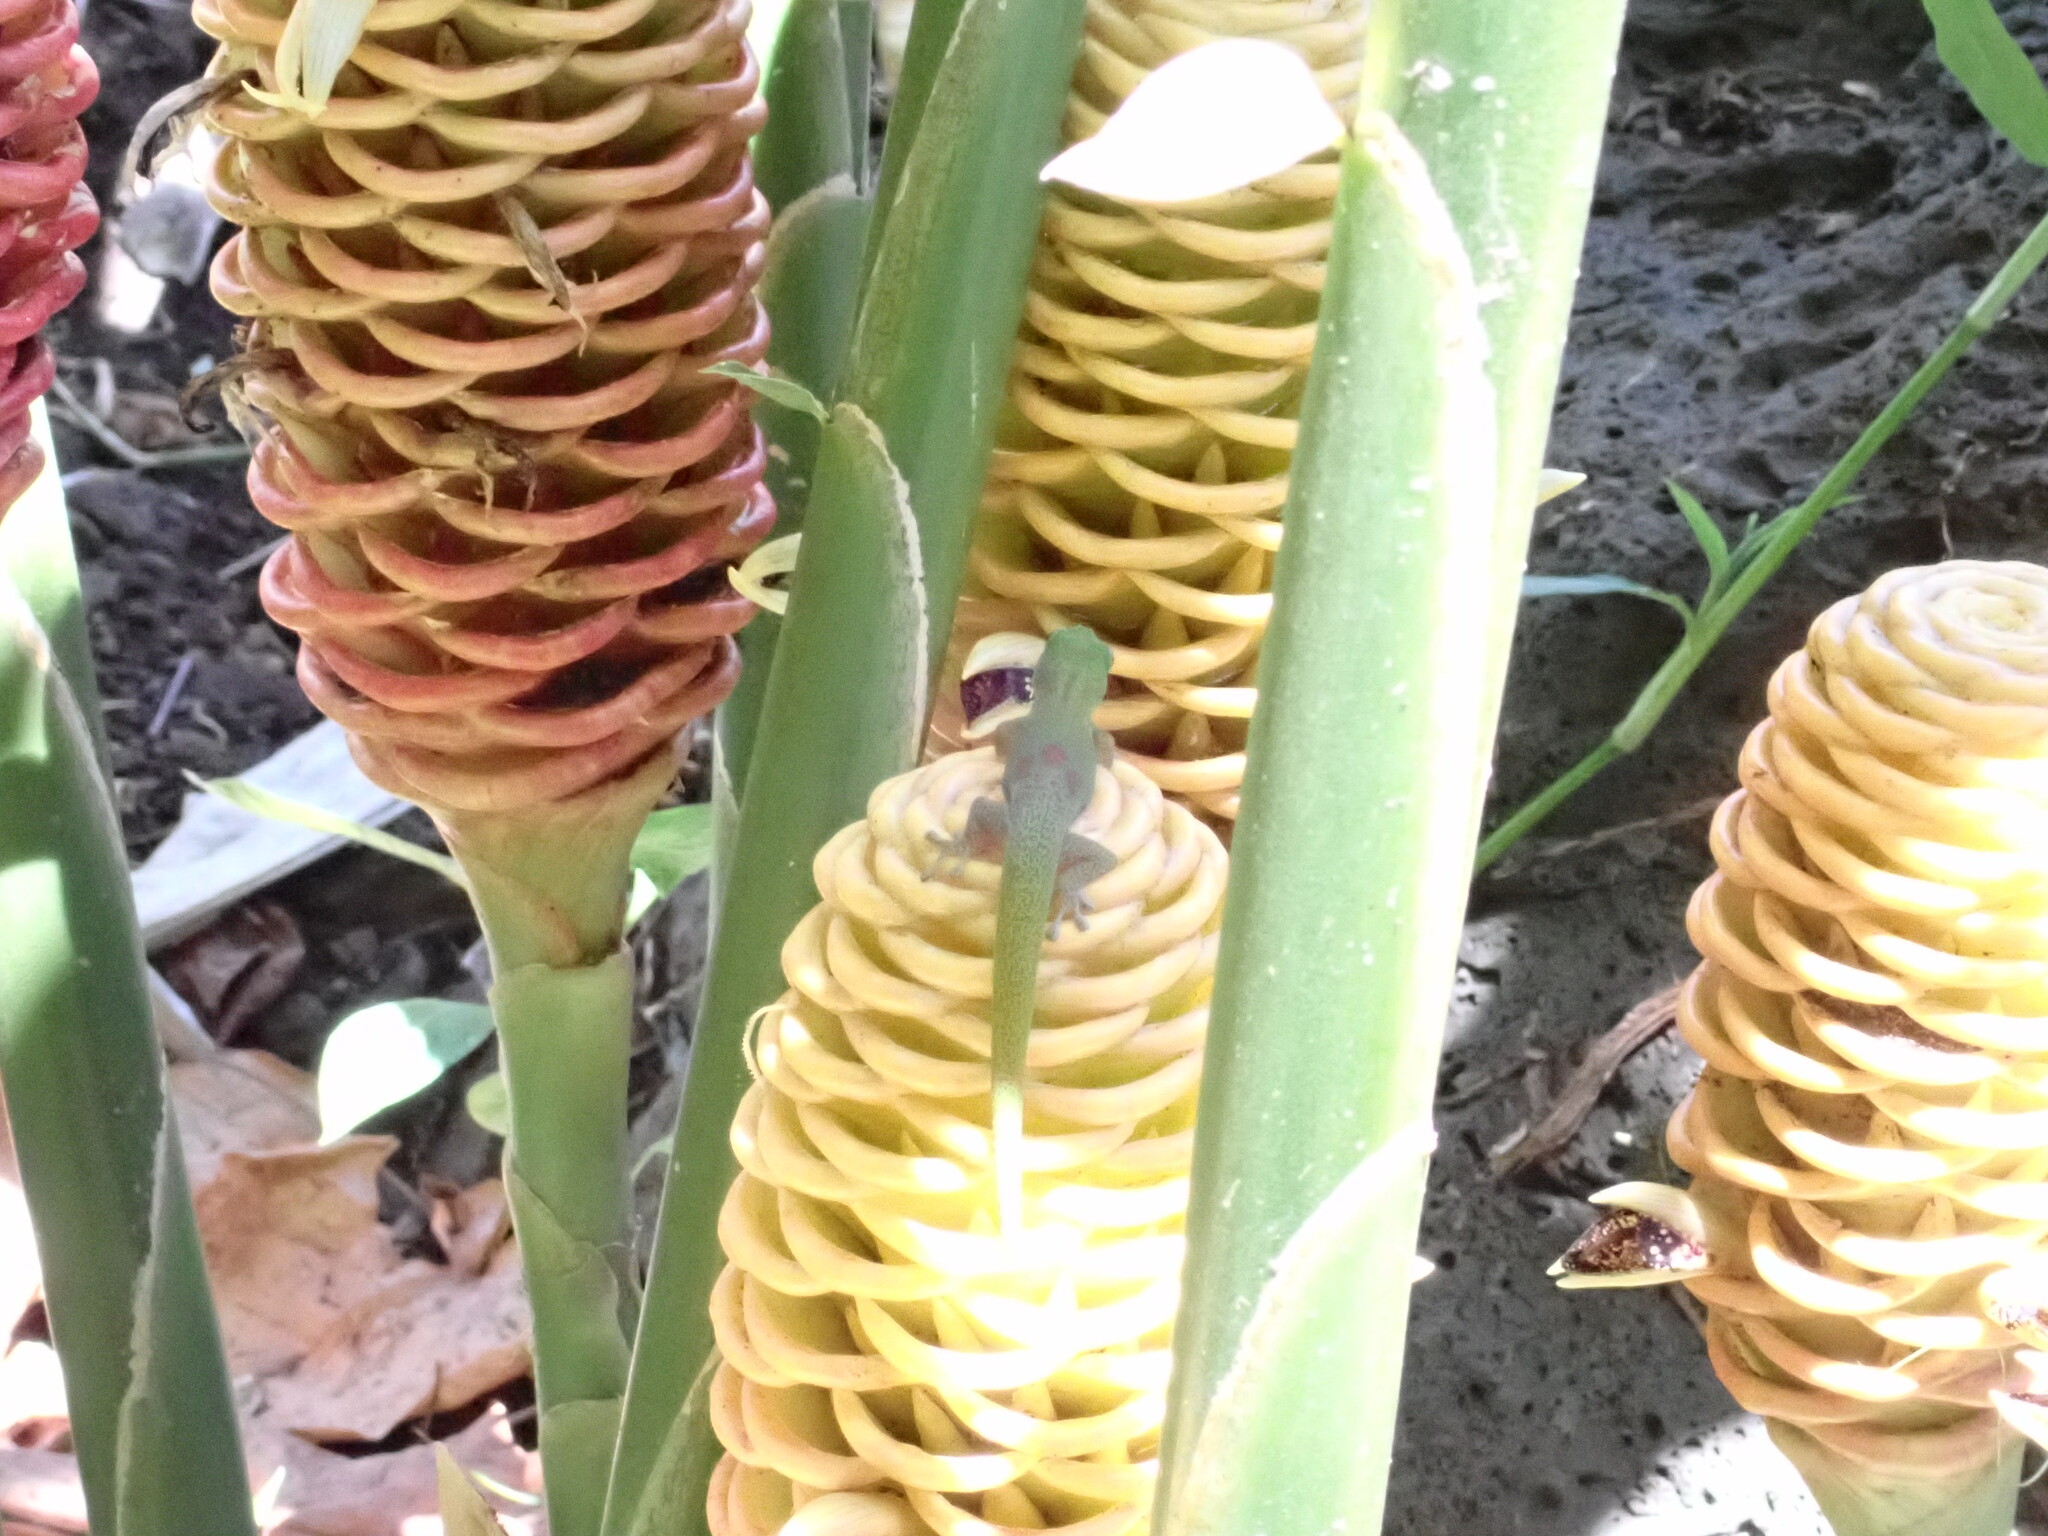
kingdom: Animalia
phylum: Chordata
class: Squamata
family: Gekkonidae
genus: Phelsuma
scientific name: Phelsuma laticauda
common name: Gold dust day gecko
